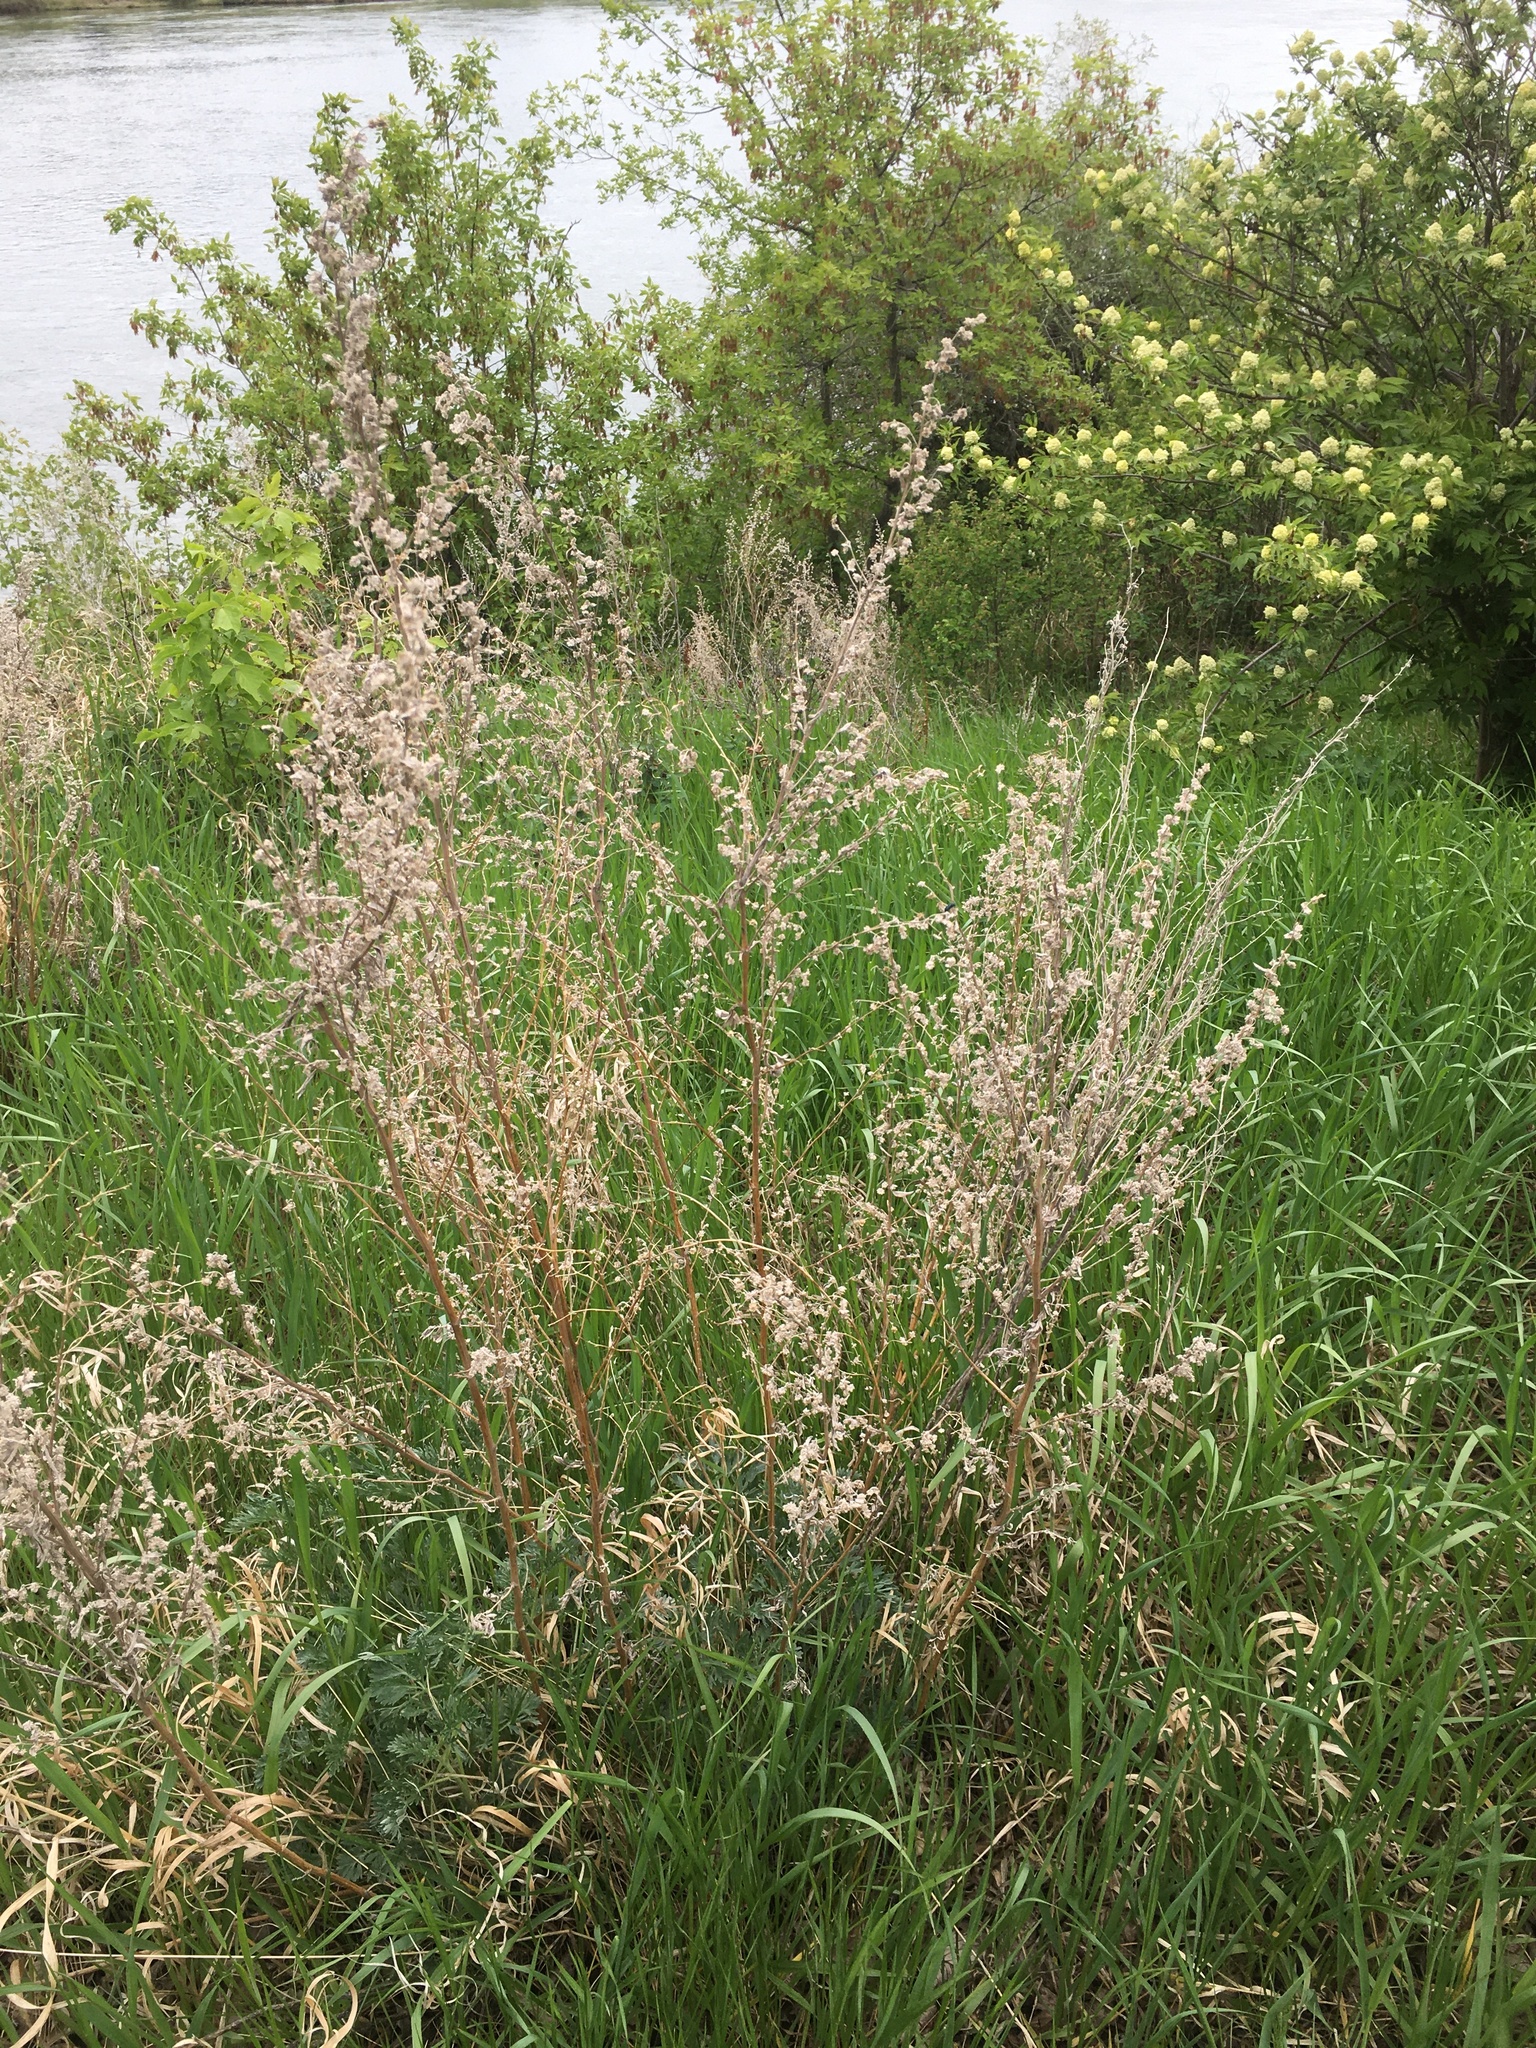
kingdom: Plantae
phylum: Tracheophyta
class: Magnoliopsida
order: Asterales
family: Asteraceae
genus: Artemisia
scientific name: Artemisia absinthium
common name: Wormwood
